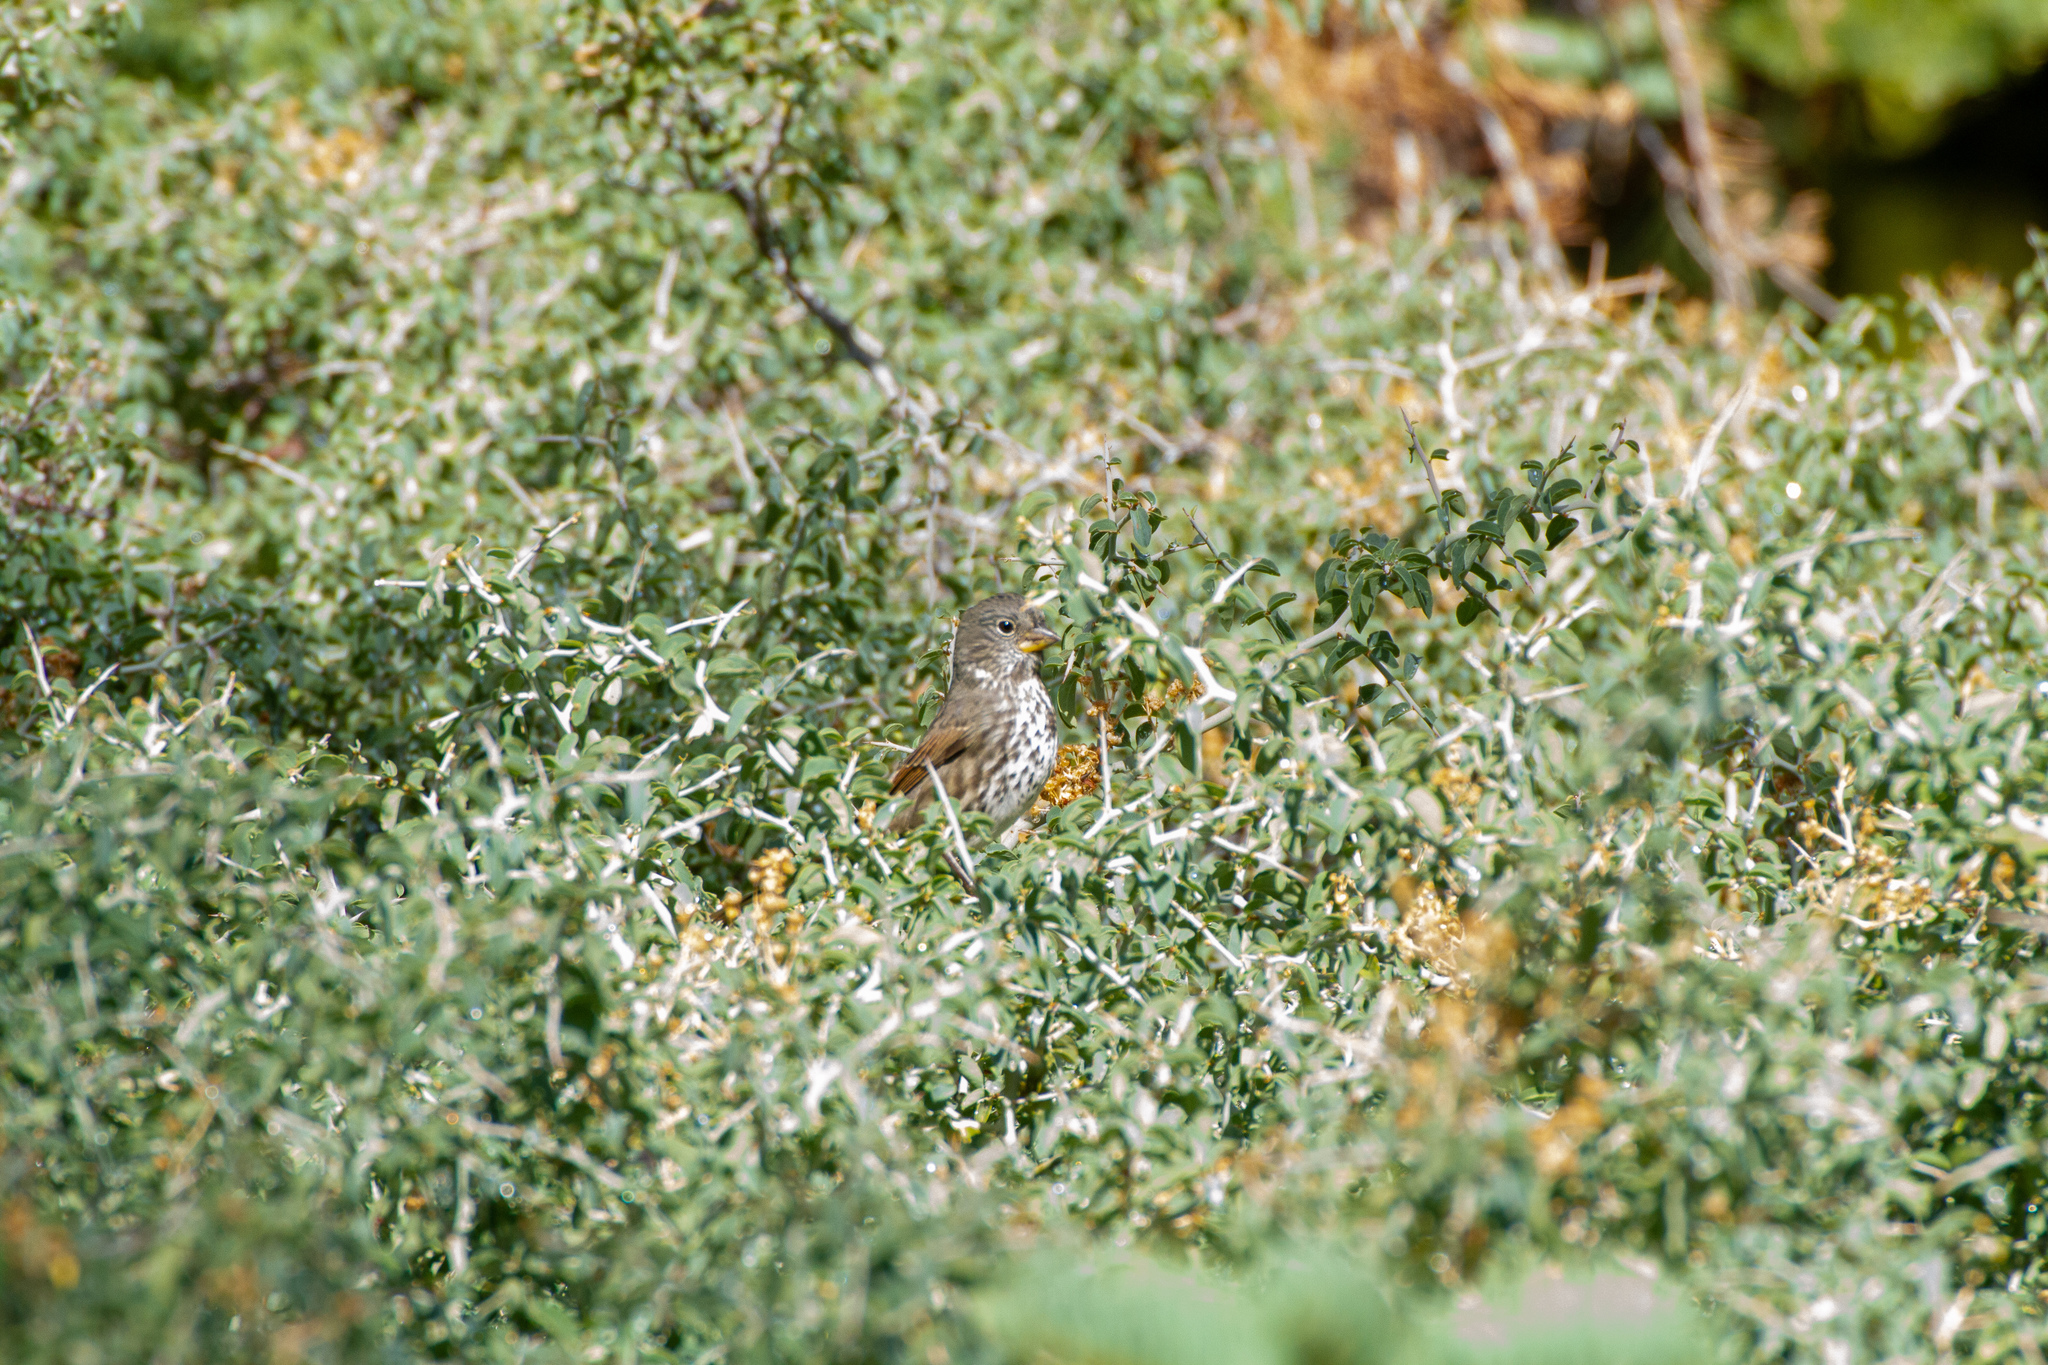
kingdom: Animalia
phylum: Chordata
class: Aves
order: Passeriformes
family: Passerellidae
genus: Passerella
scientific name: Passerella iliaca
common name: Fox sparrow
